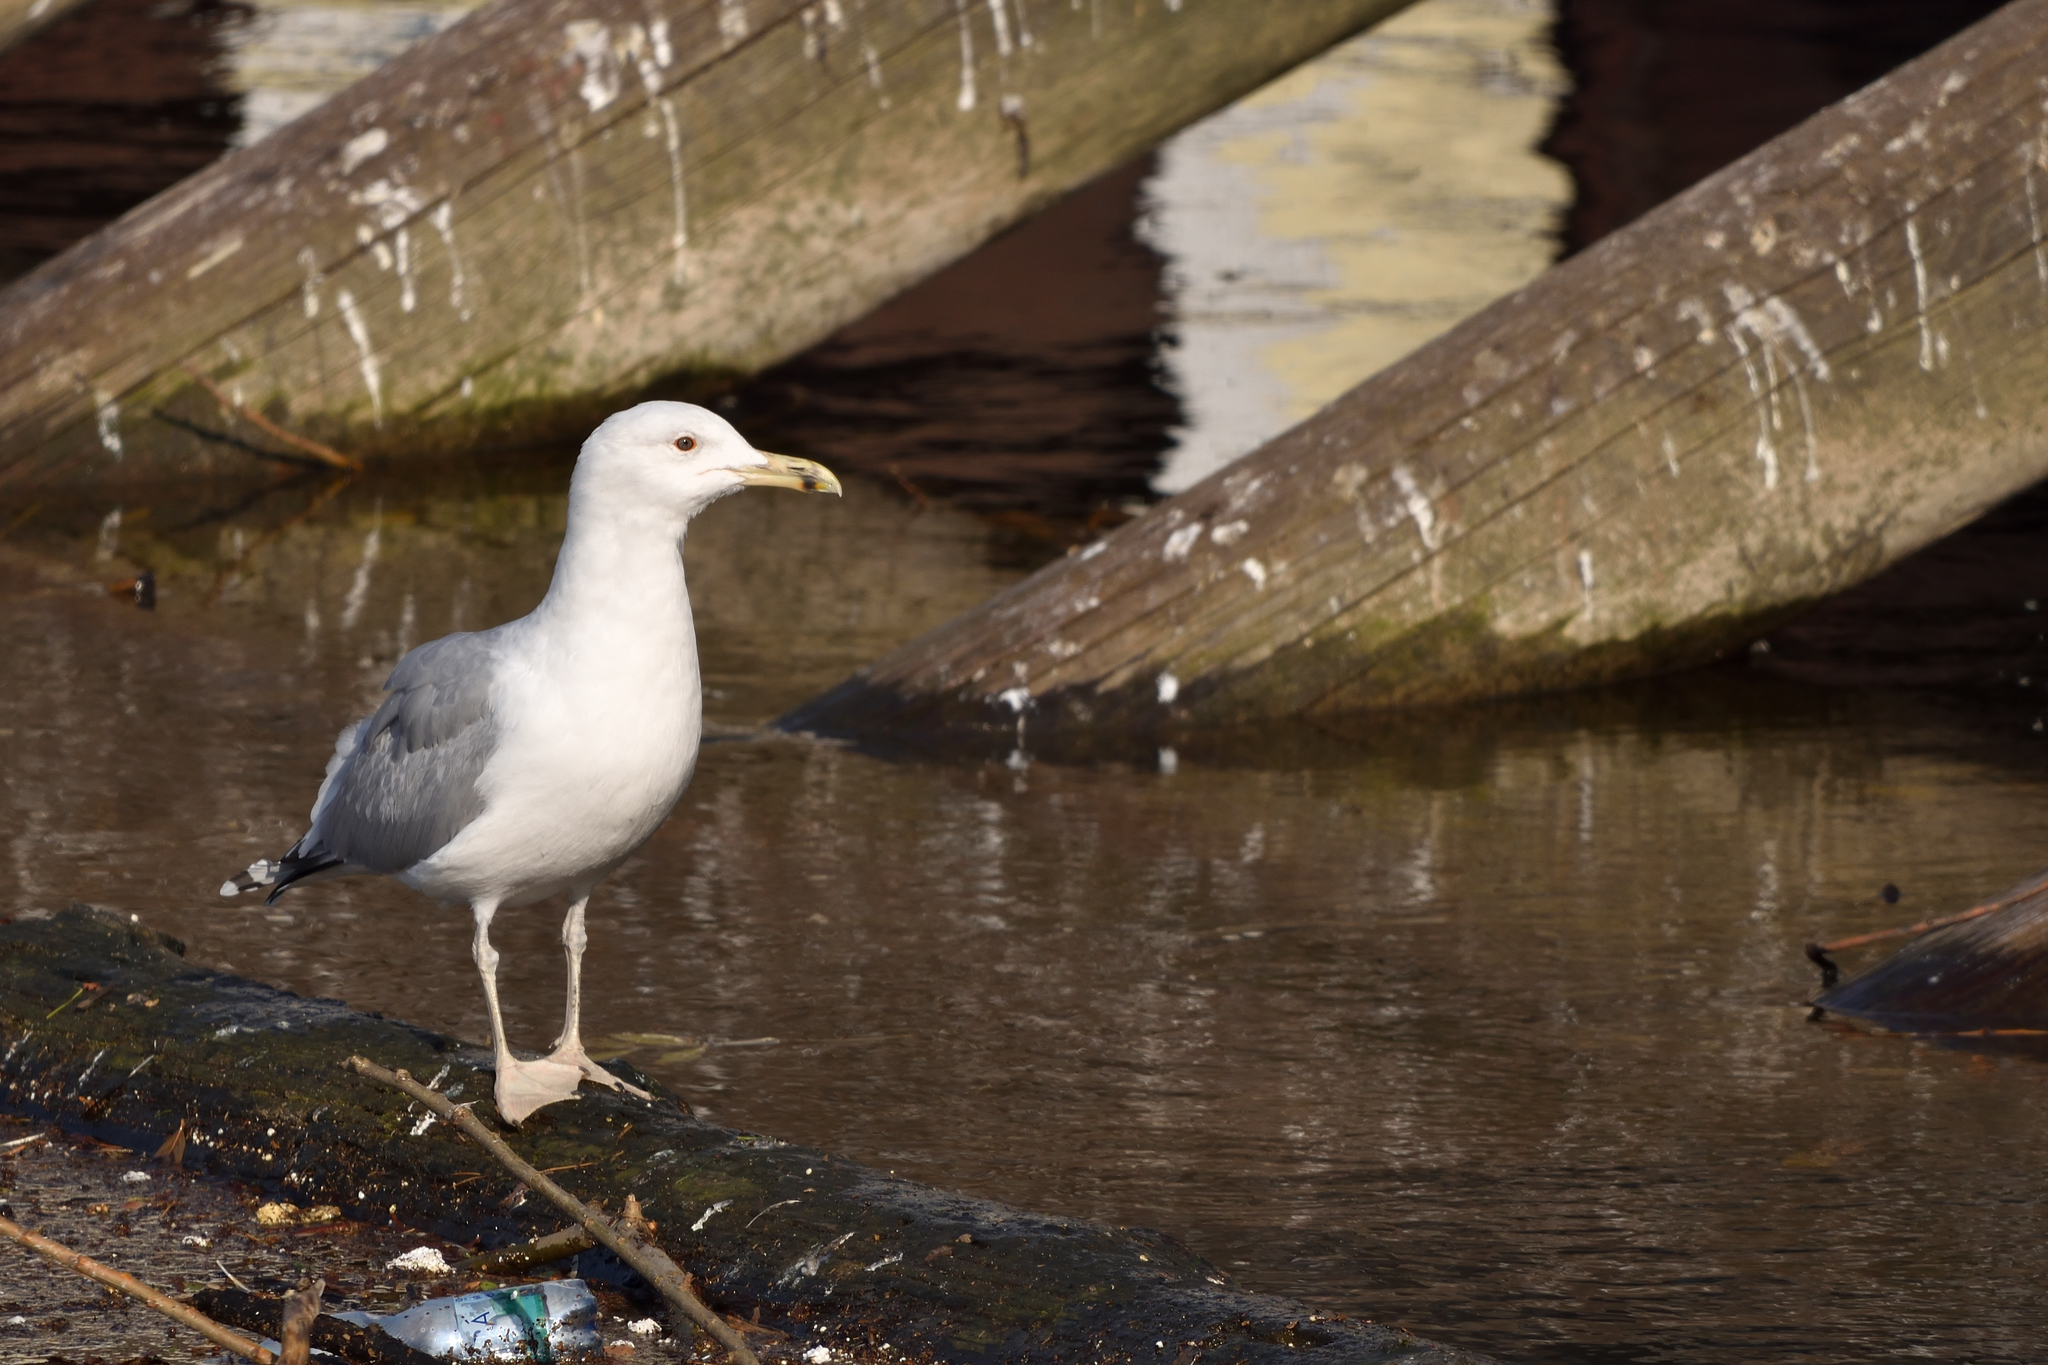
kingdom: Animalia
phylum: Chordata
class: Aves
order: Charadriiformes
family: Laridae
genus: Larus
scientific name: Larus cachinnans
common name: Caspian gull
